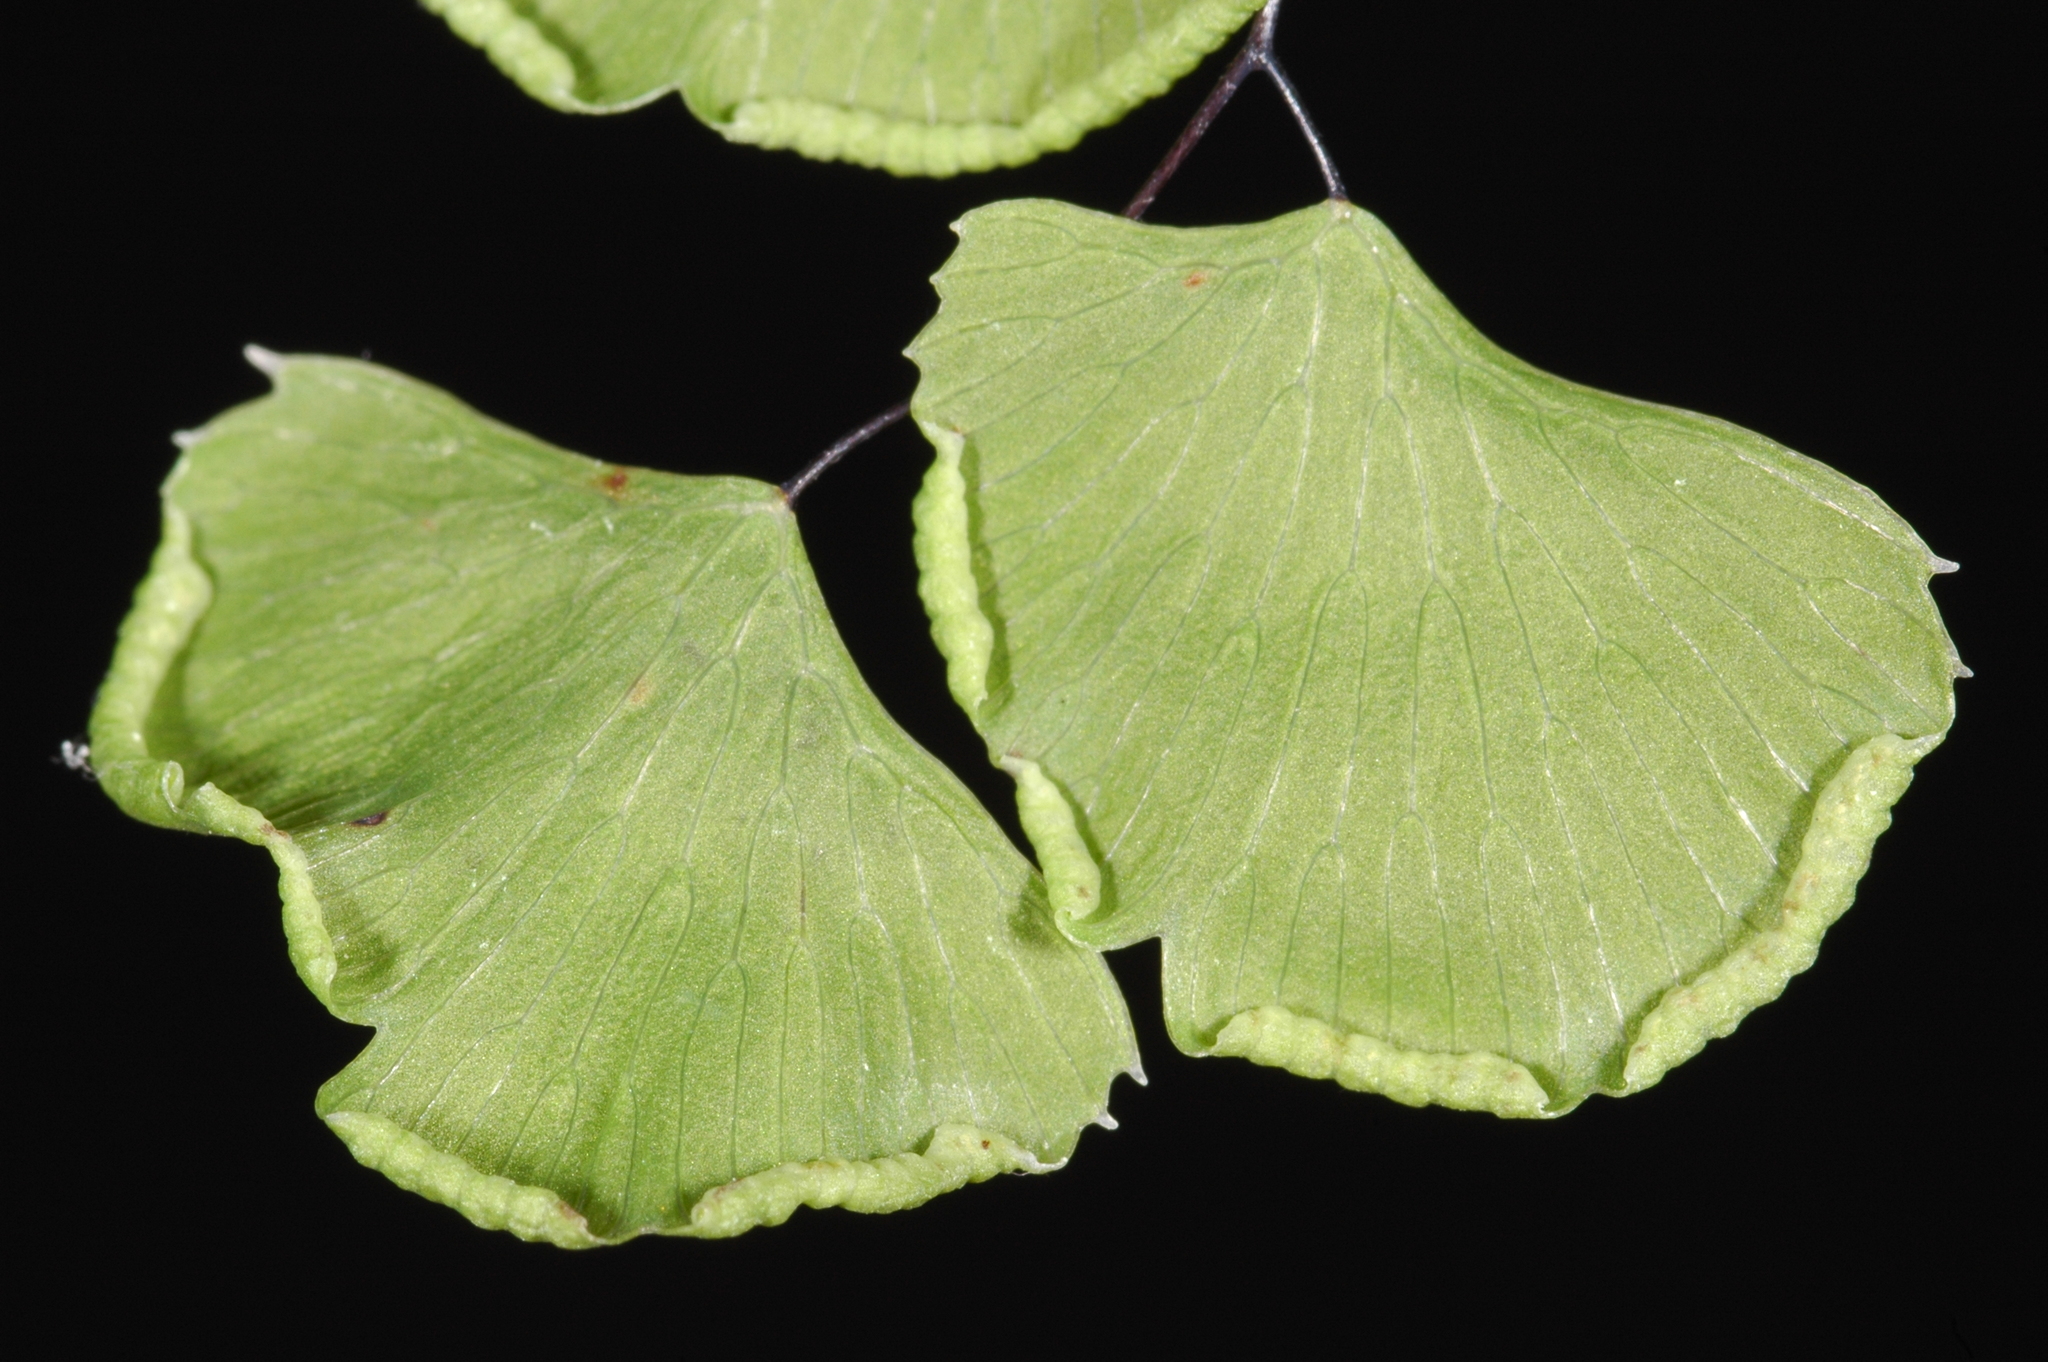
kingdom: Plantae
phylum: Tracheophyta
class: Polypodiopsida
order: Polypodiales
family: Pteridaceae
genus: Adiantum
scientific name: Adiantum jordanii
